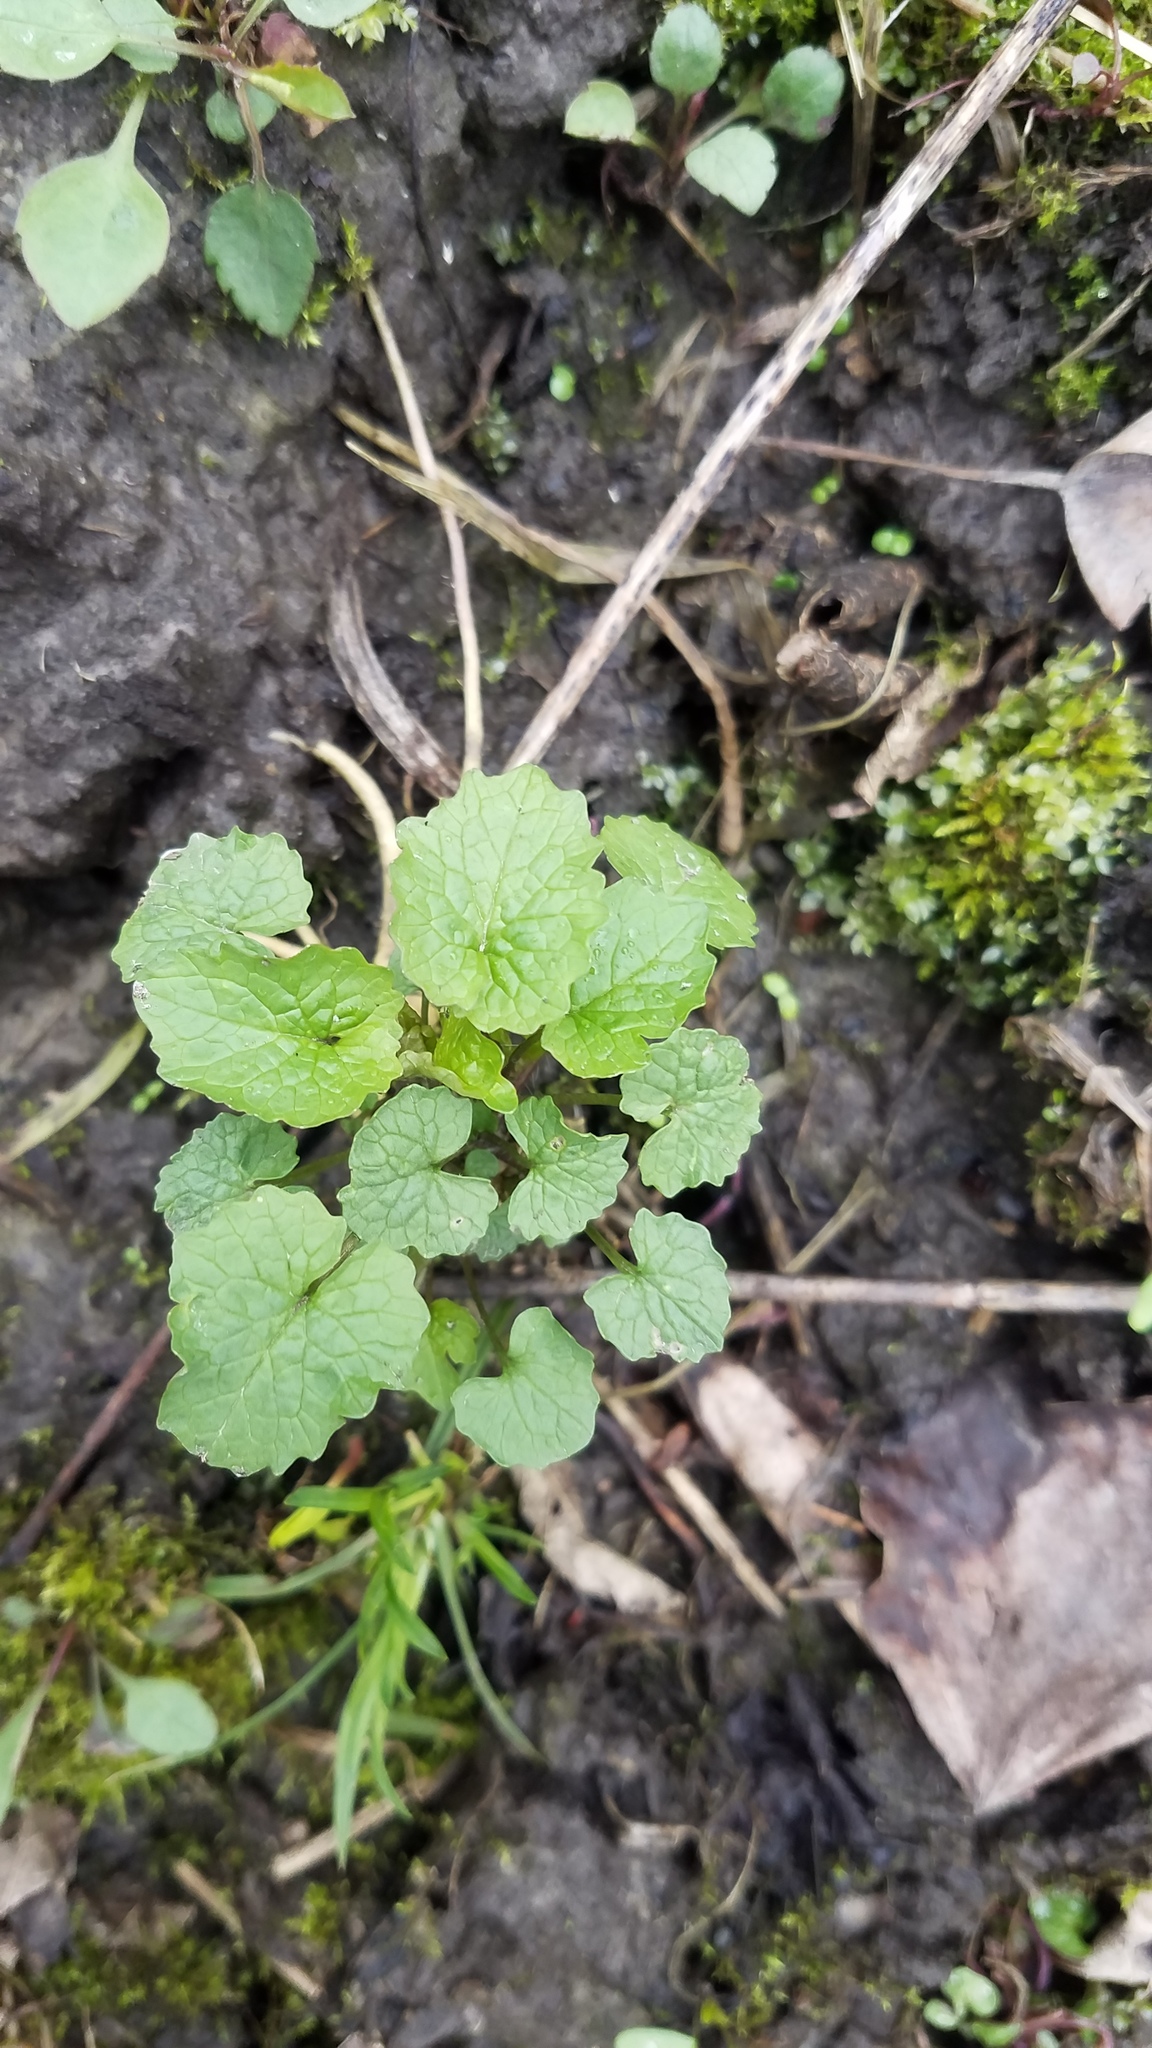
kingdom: Plantae
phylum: Tracheophyta
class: Magnoliopsida
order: Brassicales
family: Brassicaceae
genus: Alliaria
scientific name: Alliaria petiolata
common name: Garlic mustard
